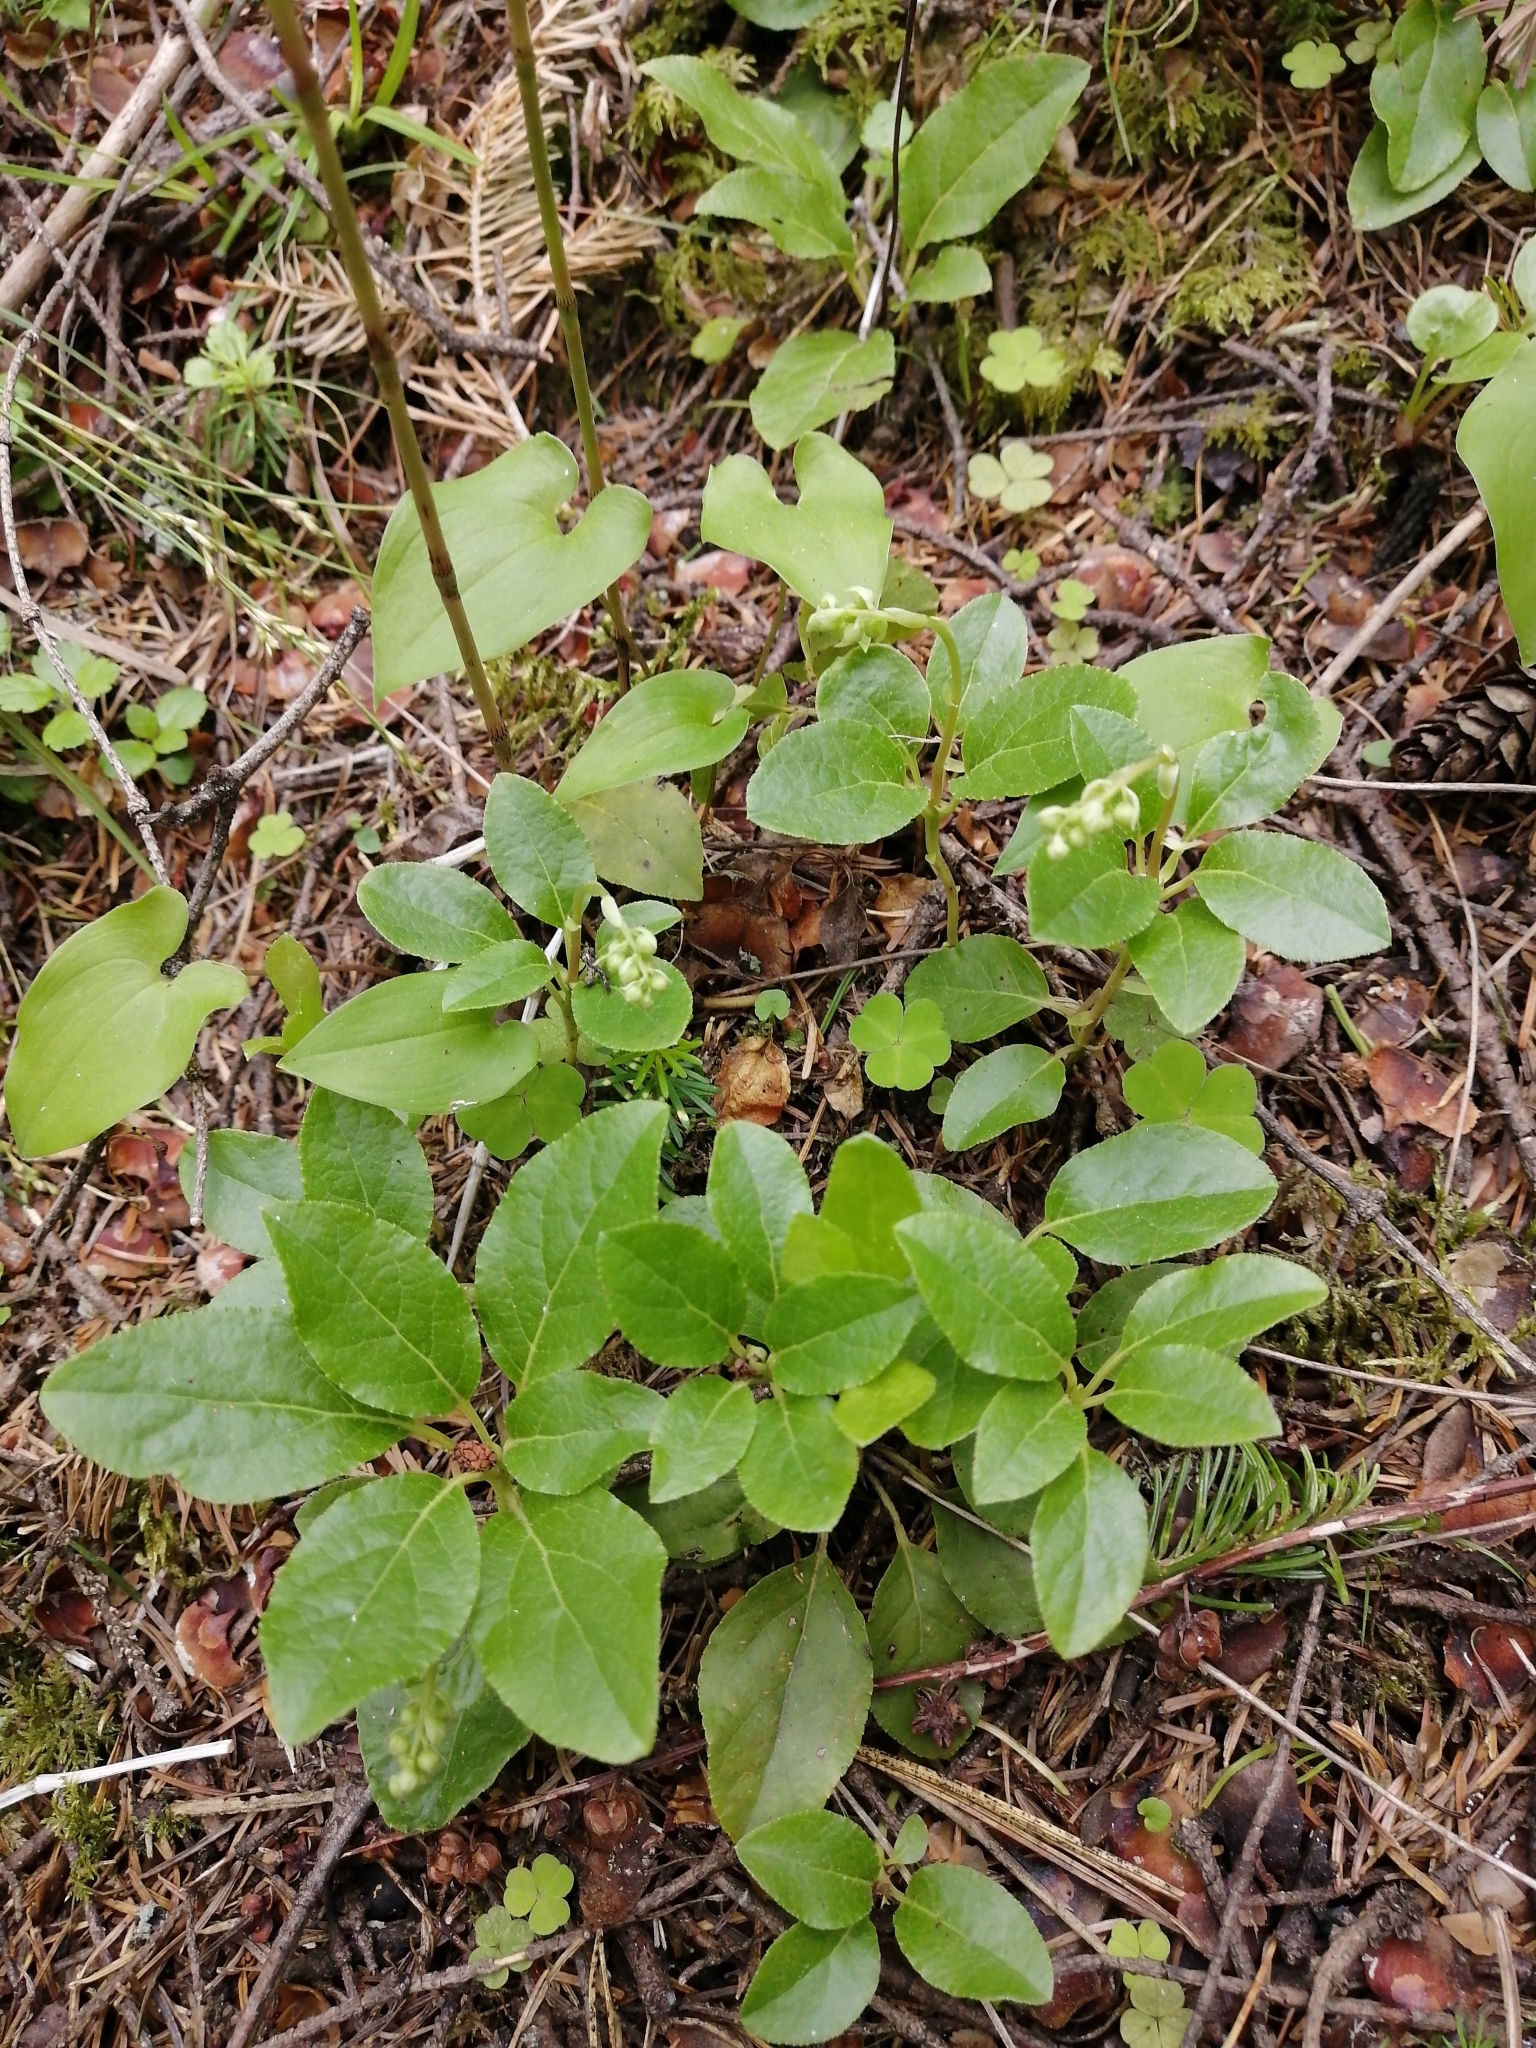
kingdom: Plantae
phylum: Tracheophyta
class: Magnoliopsida
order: Ericales
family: Ericaceae
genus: Orthilia
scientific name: Orthilia secunda
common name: One-sided orthilia
